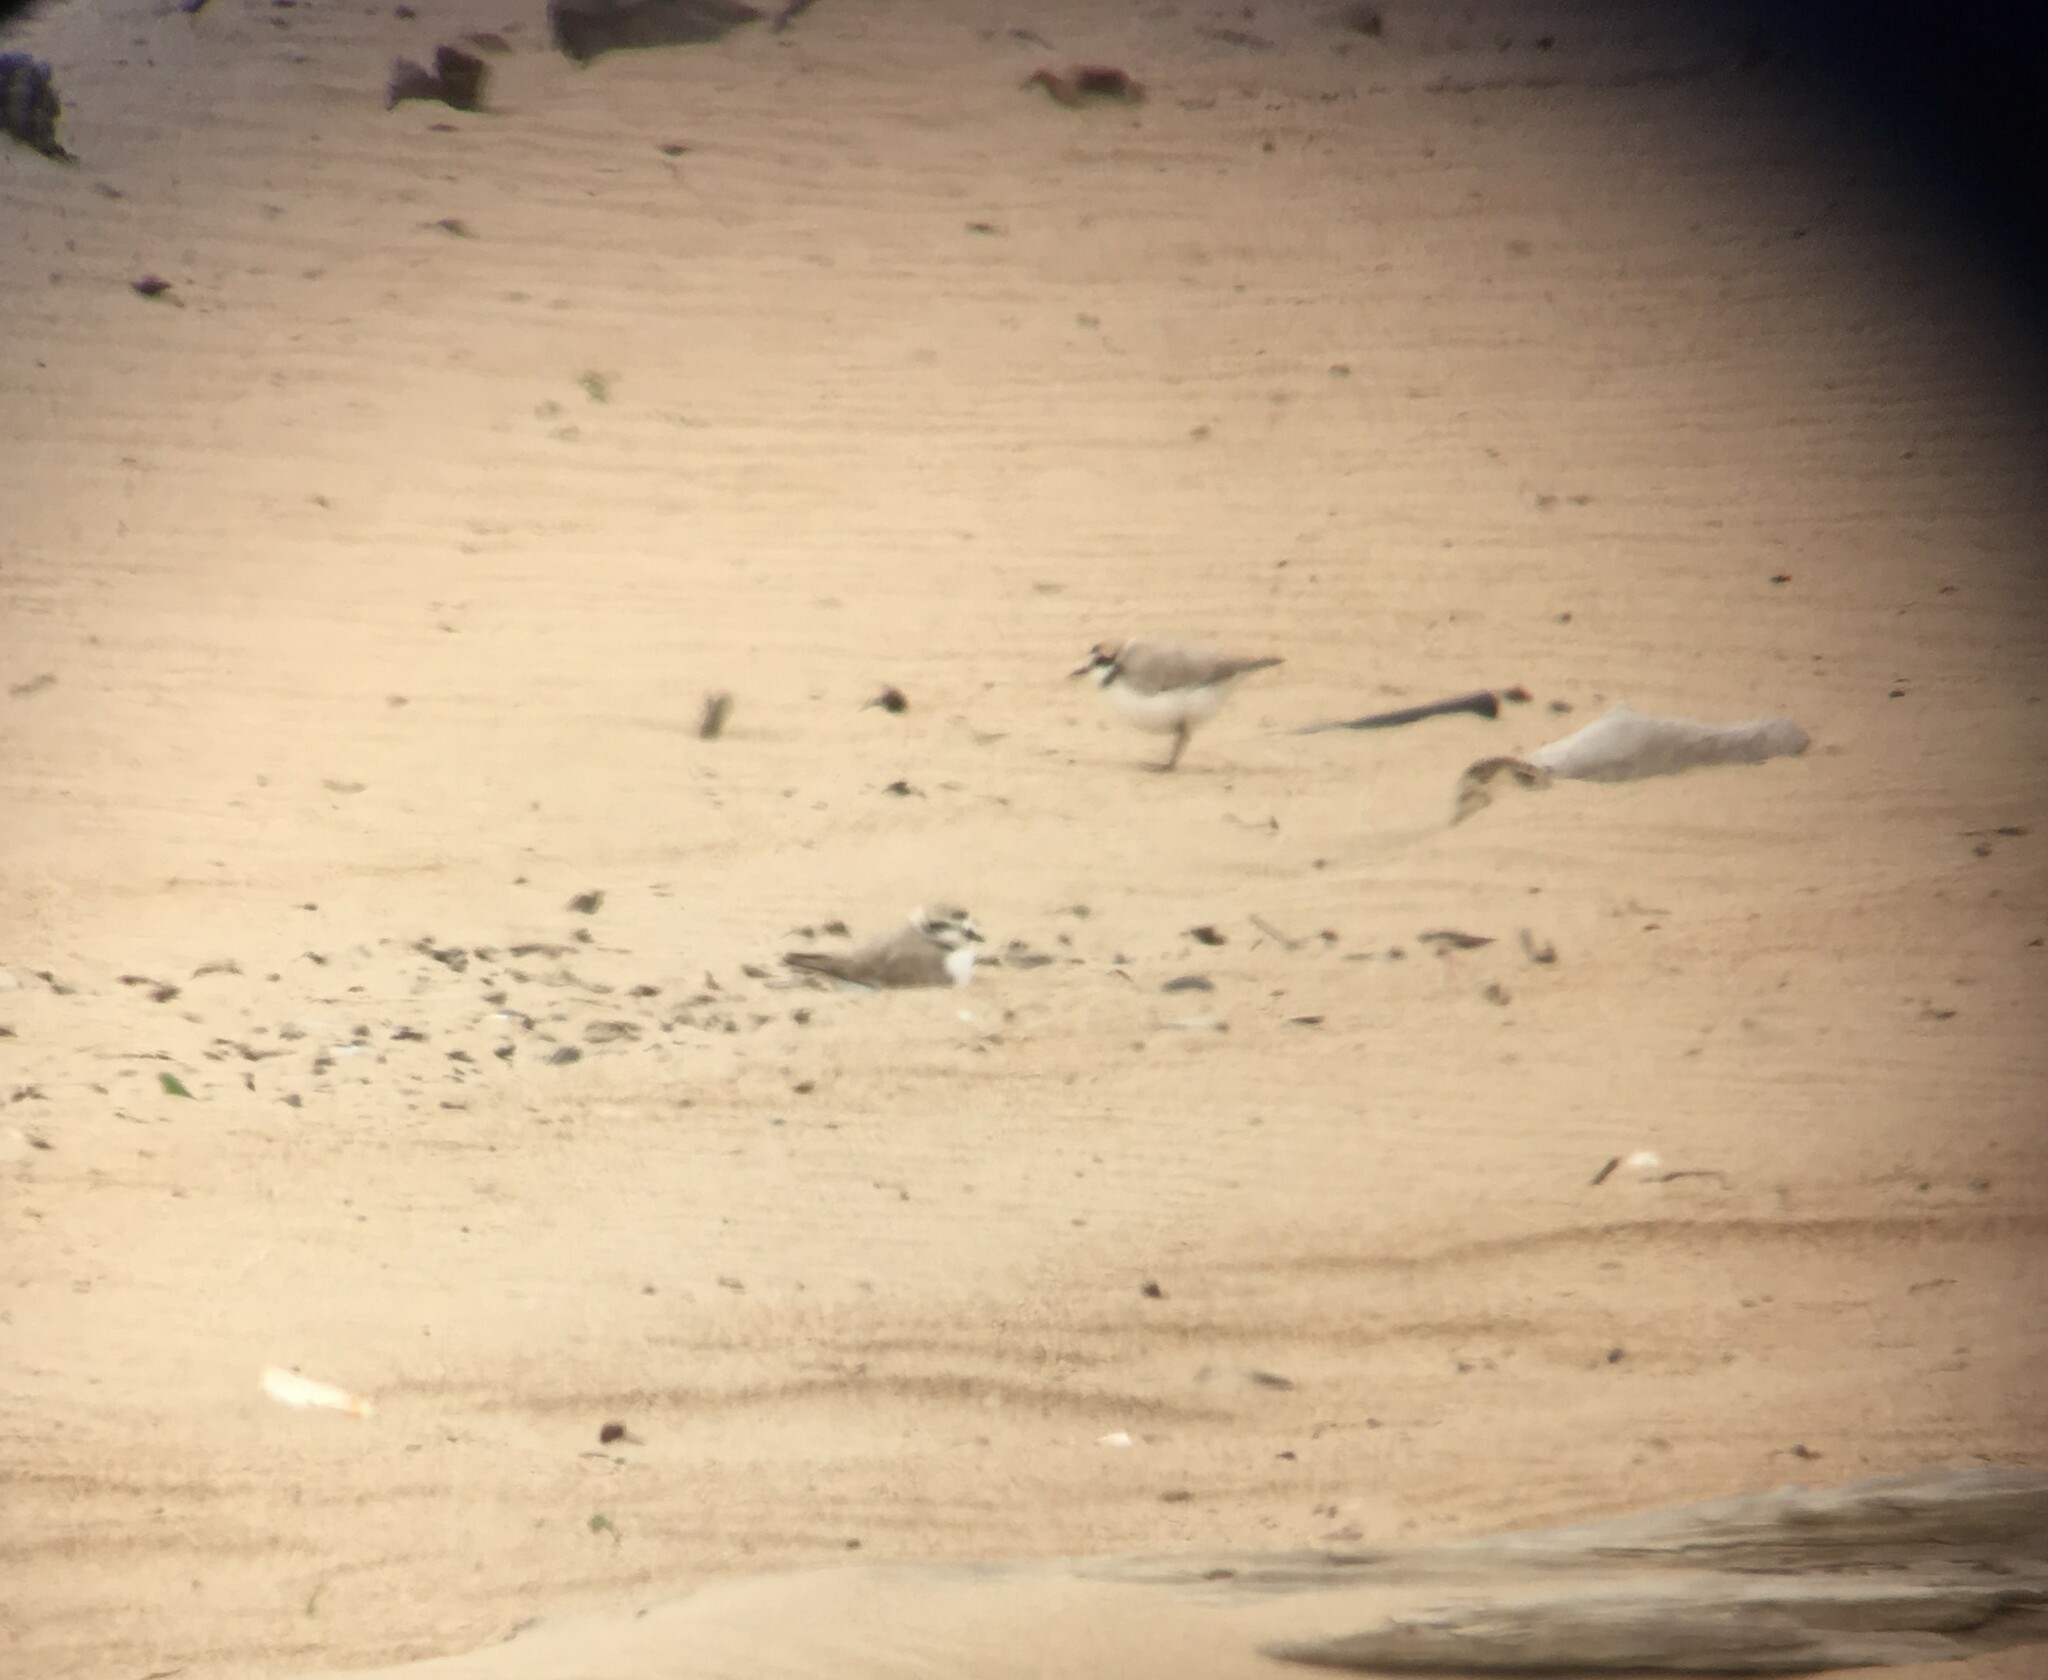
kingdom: Animalia
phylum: Chordata
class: Aves
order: Charadriiformes
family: Charadriidae
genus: Anarhynchus
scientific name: Anarhynchus
